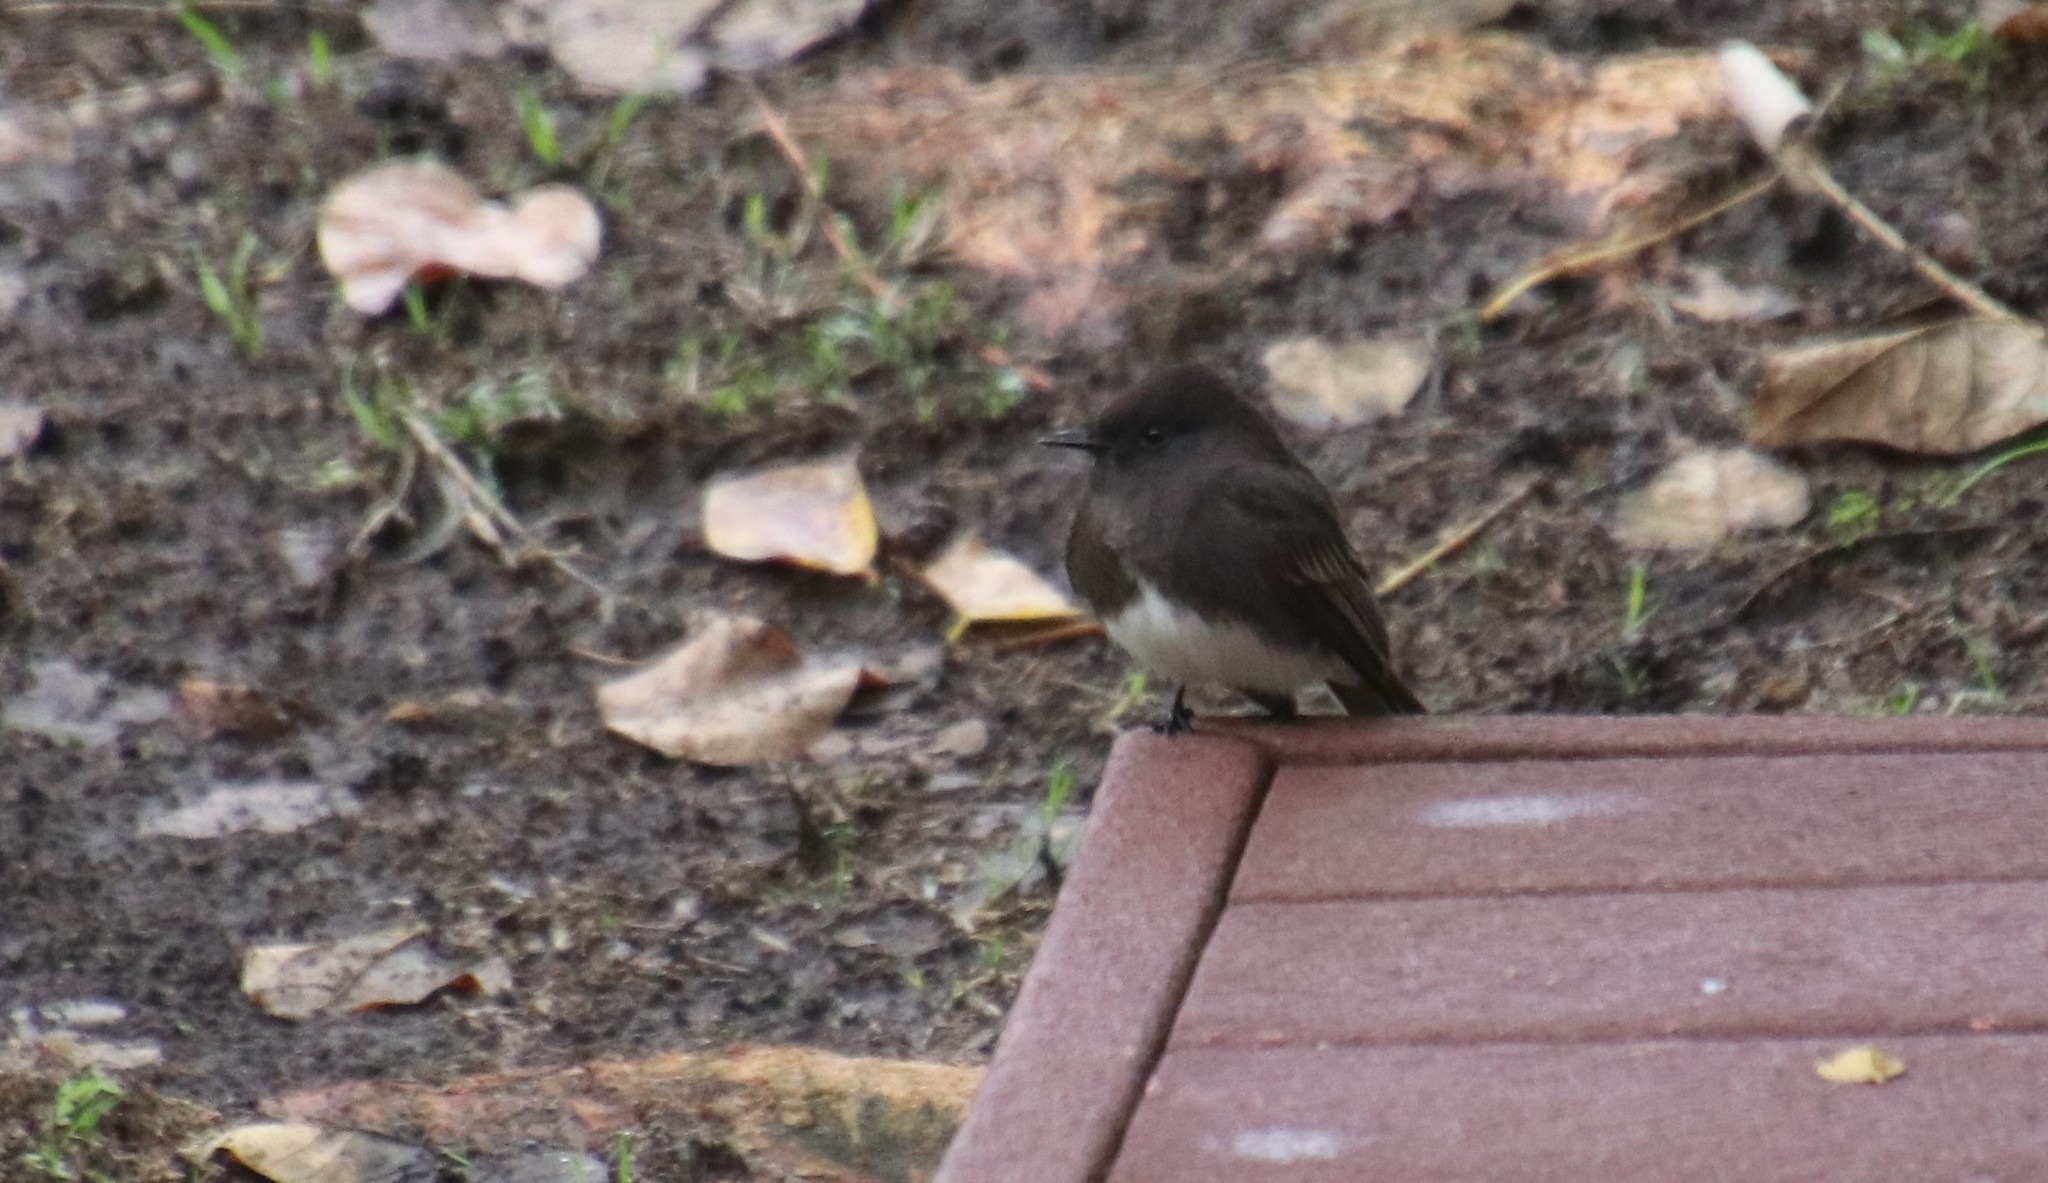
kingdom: Animalia
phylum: Chordata
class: Aves
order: Passeriformes
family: Tyrannidae
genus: Sayornis
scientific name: Sayornis nigricans
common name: Black phoebe
